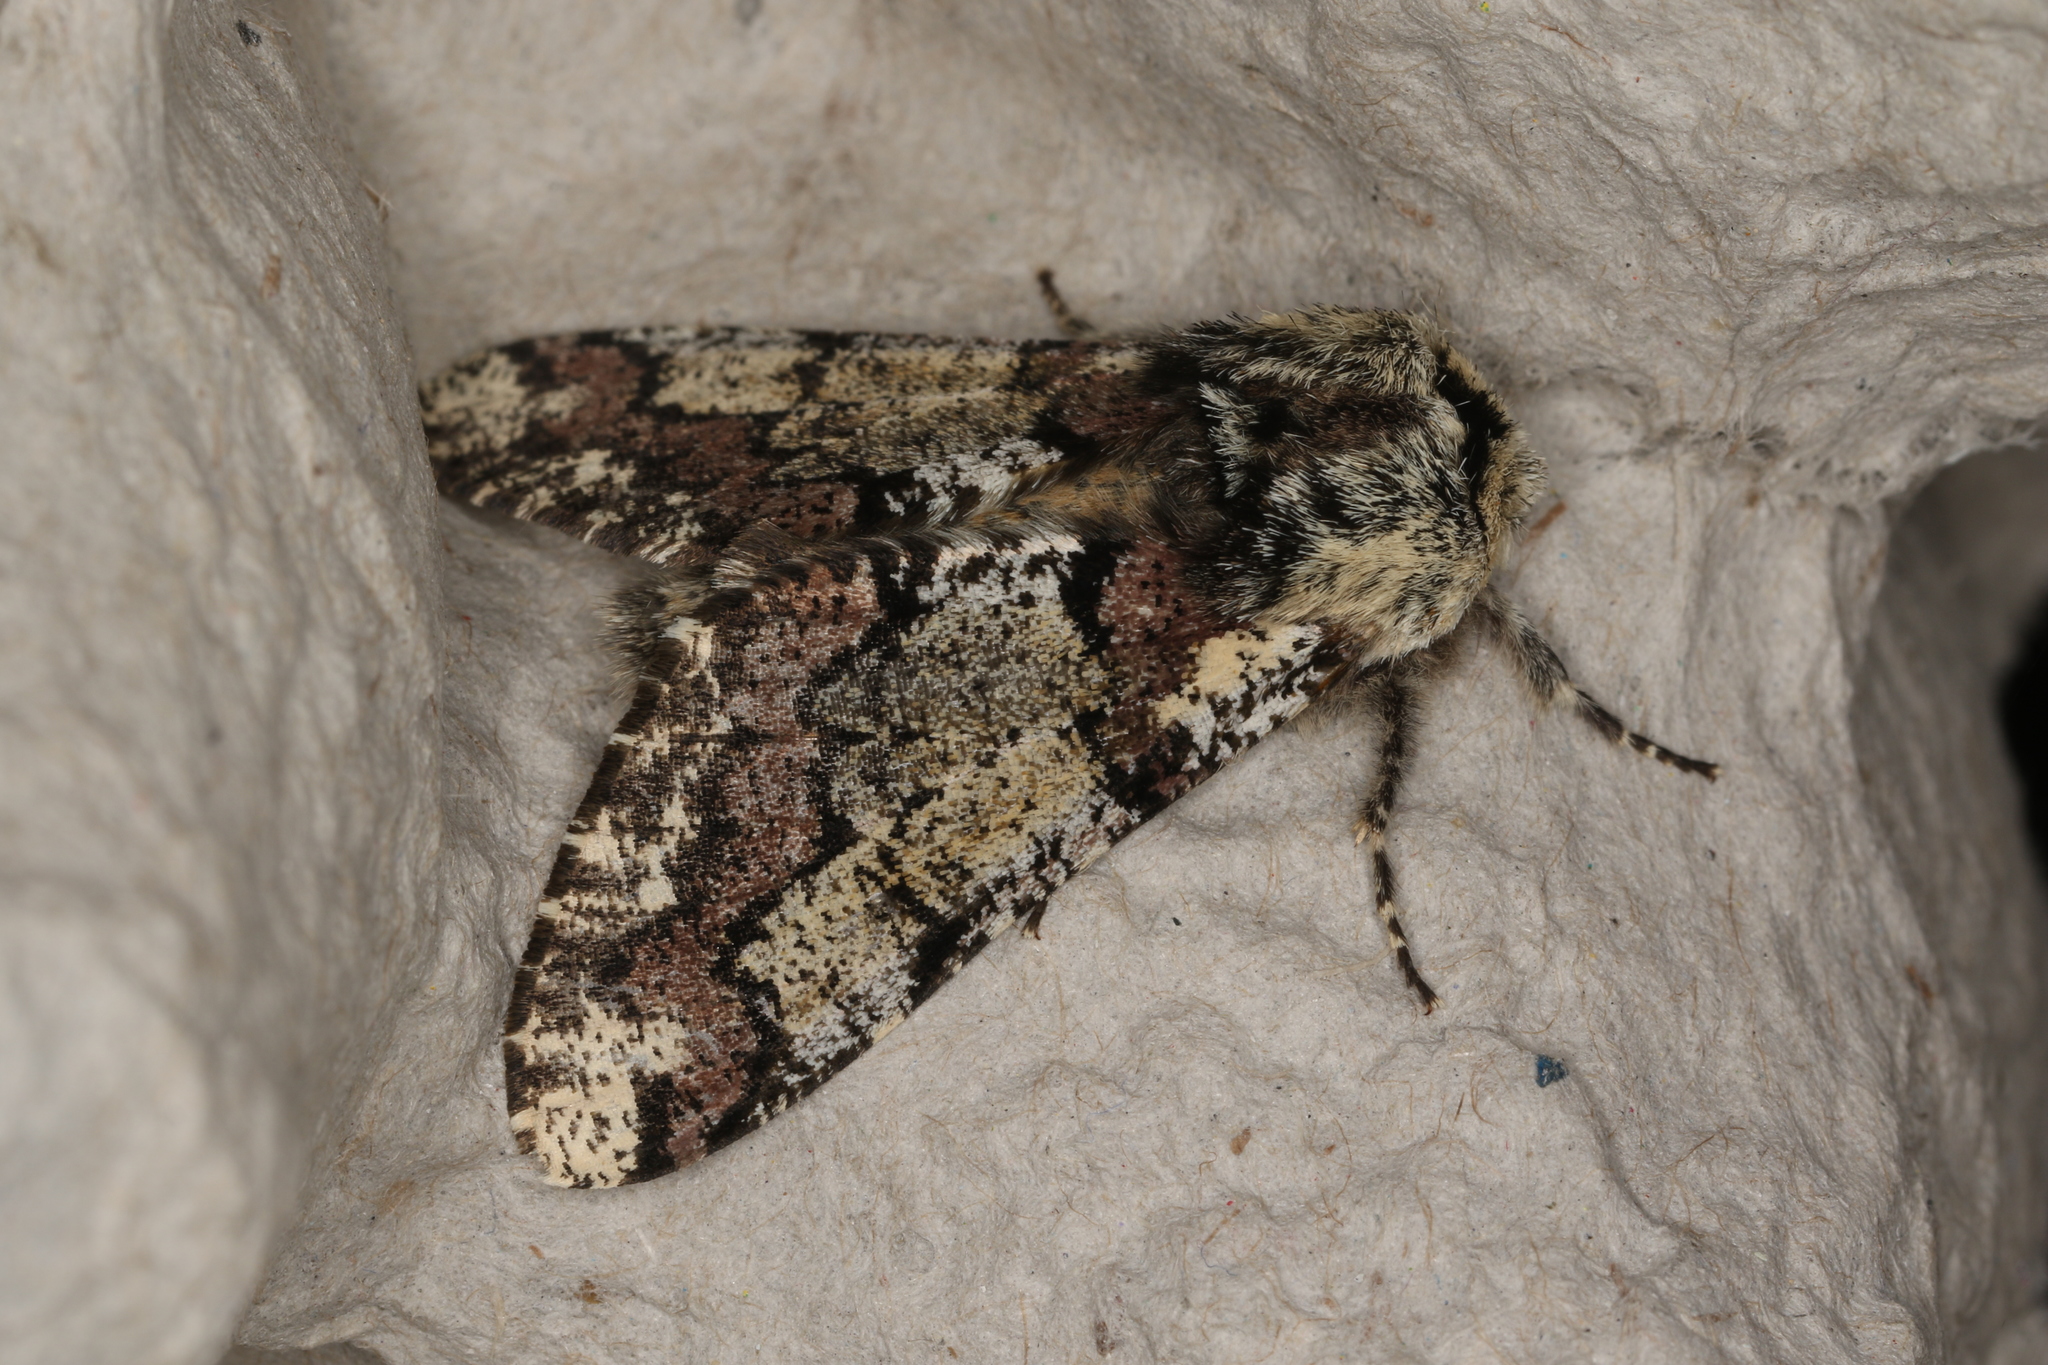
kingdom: Animalia
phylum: Arthropoda
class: Insecta
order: Lepidoptera
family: Geometridae
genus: Biston
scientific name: Biston strataria
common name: Oak beauty
